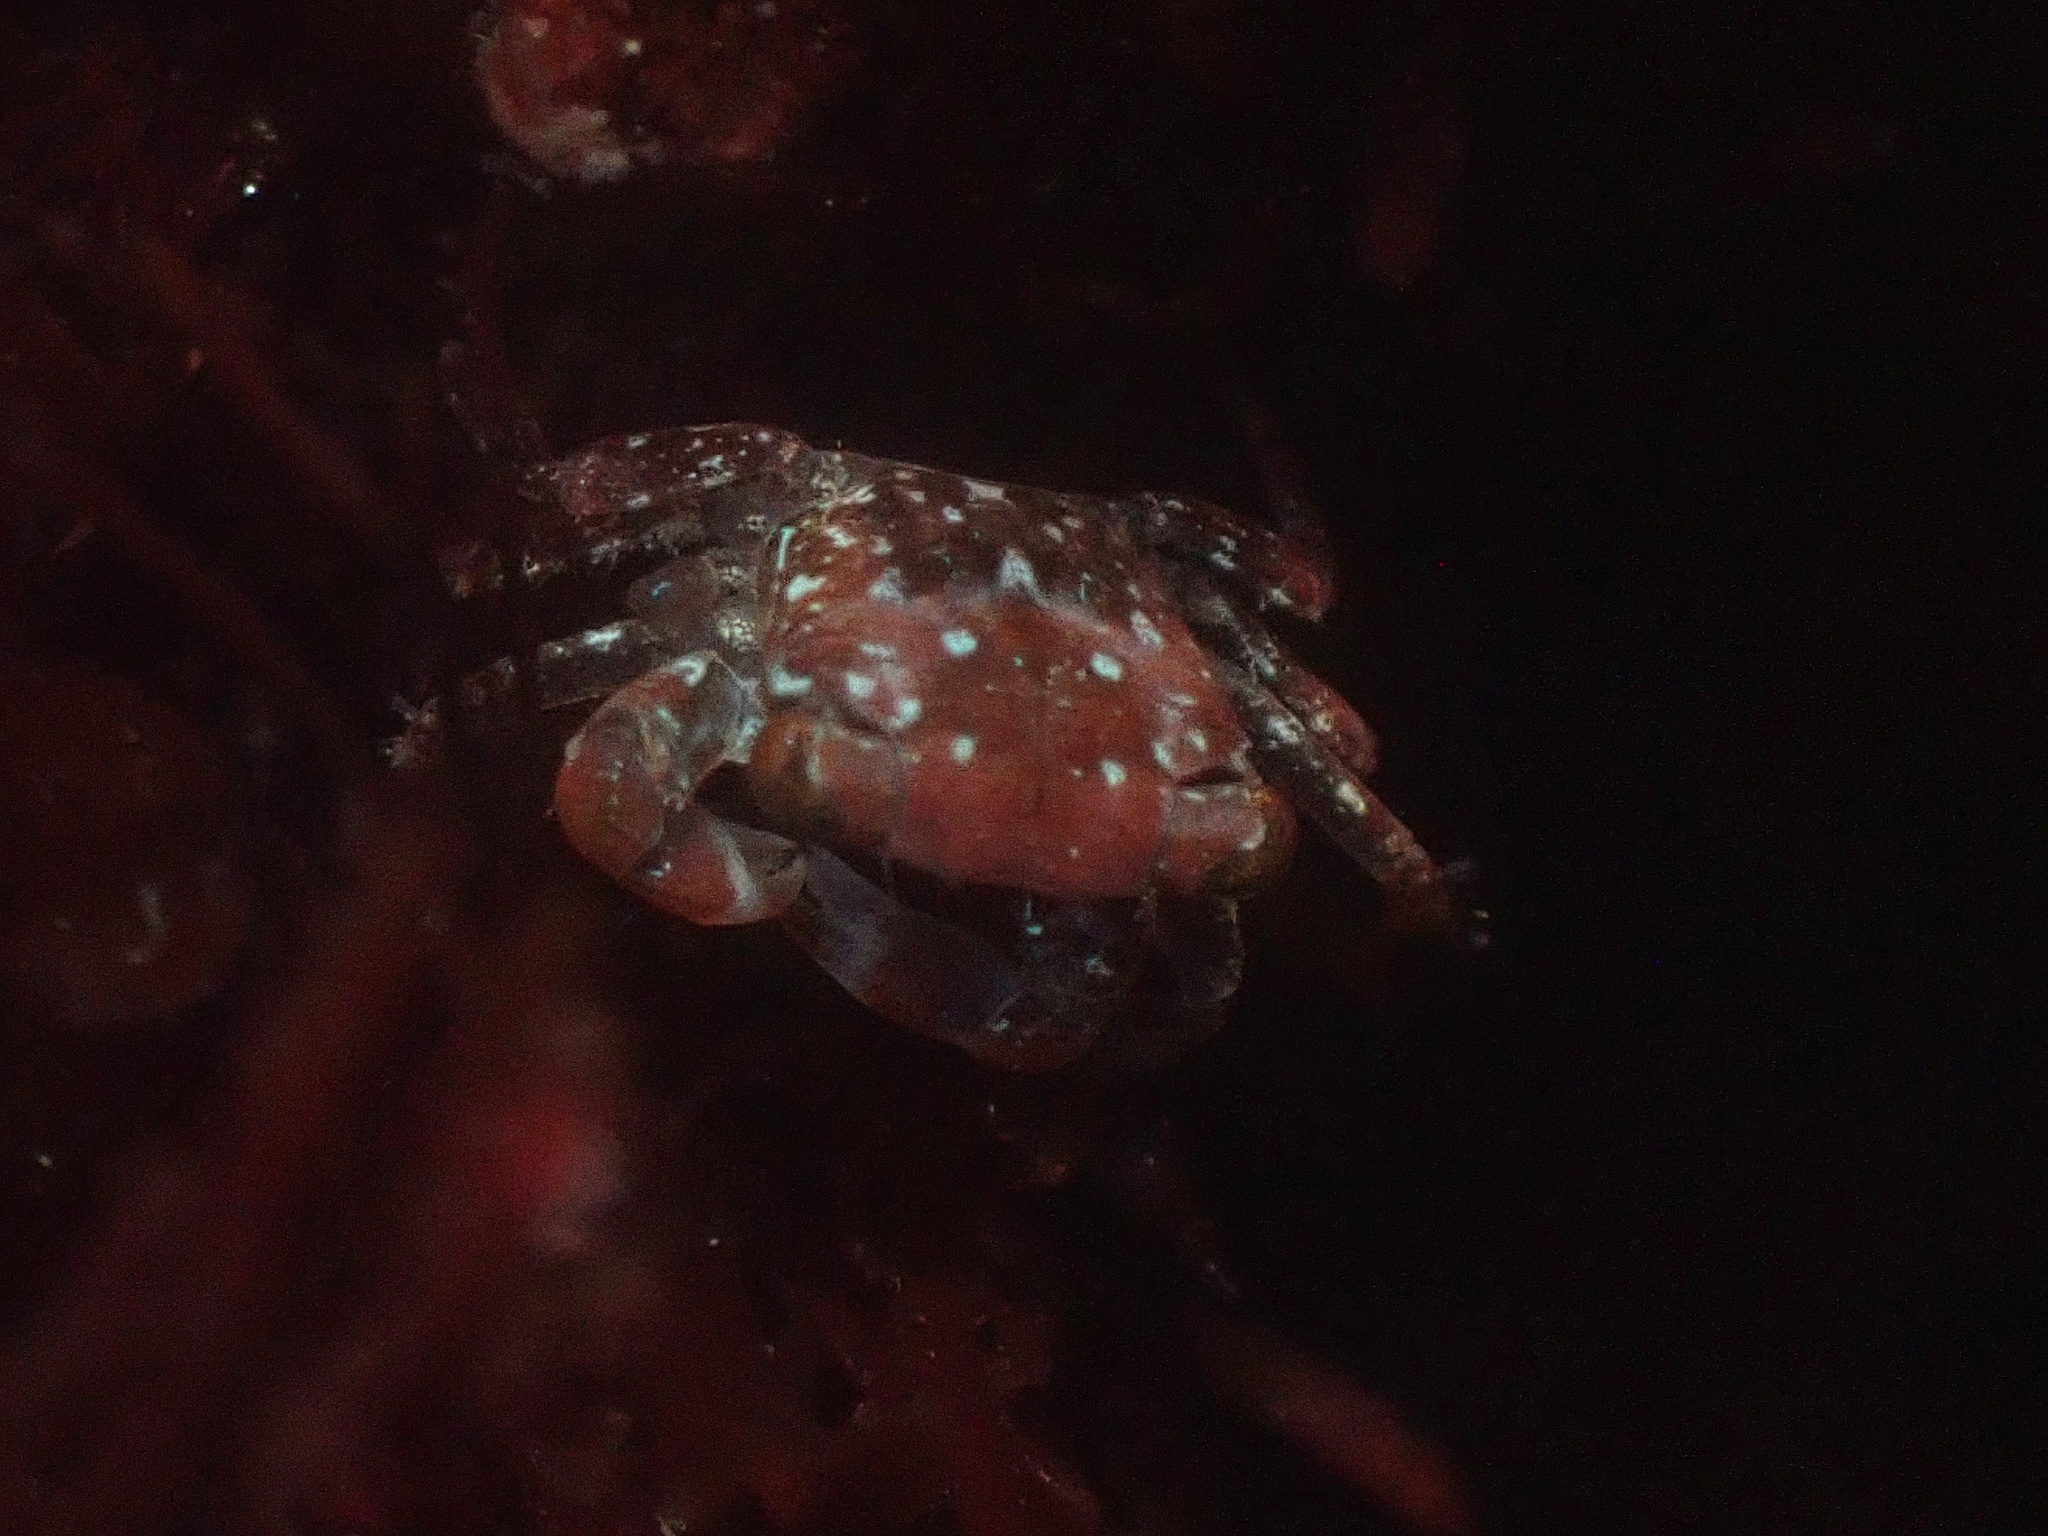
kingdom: Animalia
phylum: Arthropoda
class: Malacostraca
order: Decapoda
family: Grapsidae
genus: Pachygrapsus
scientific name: Pachygrapsus crassipes
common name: Striped shore crab
